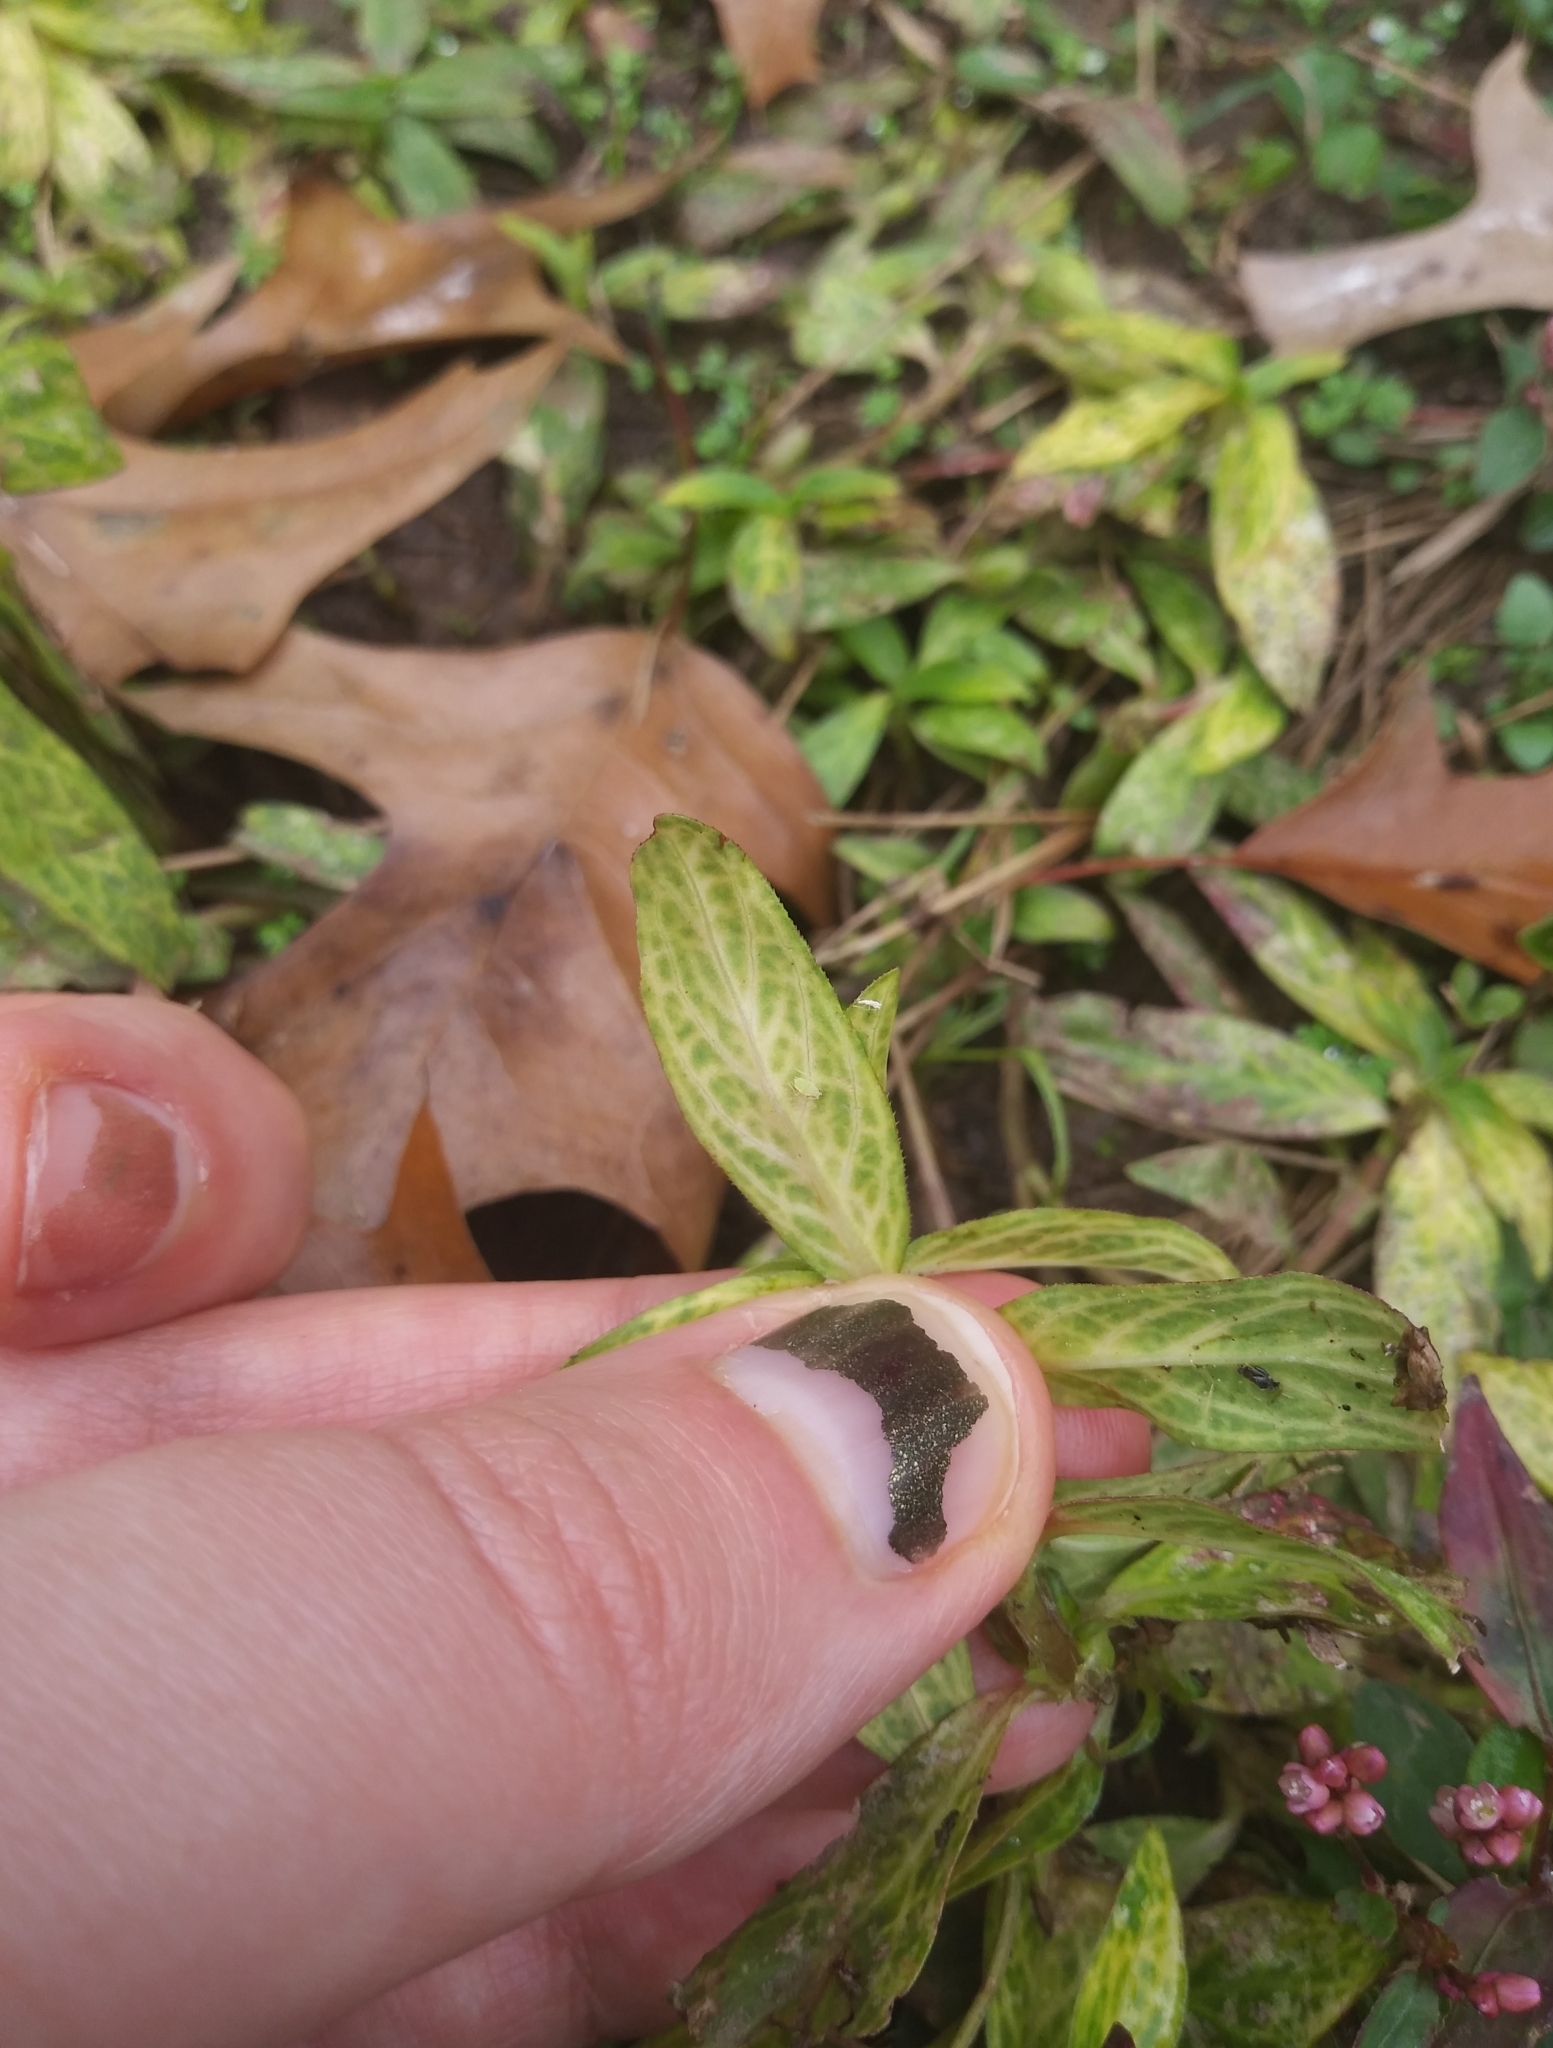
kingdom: Viruses
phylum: Kitrinoviricota
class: Alsuviricetes
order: Martellivirales
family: Closteroviridae
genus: Crinivirus
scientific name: Crinivirus Diodia vein chlorosis virus
